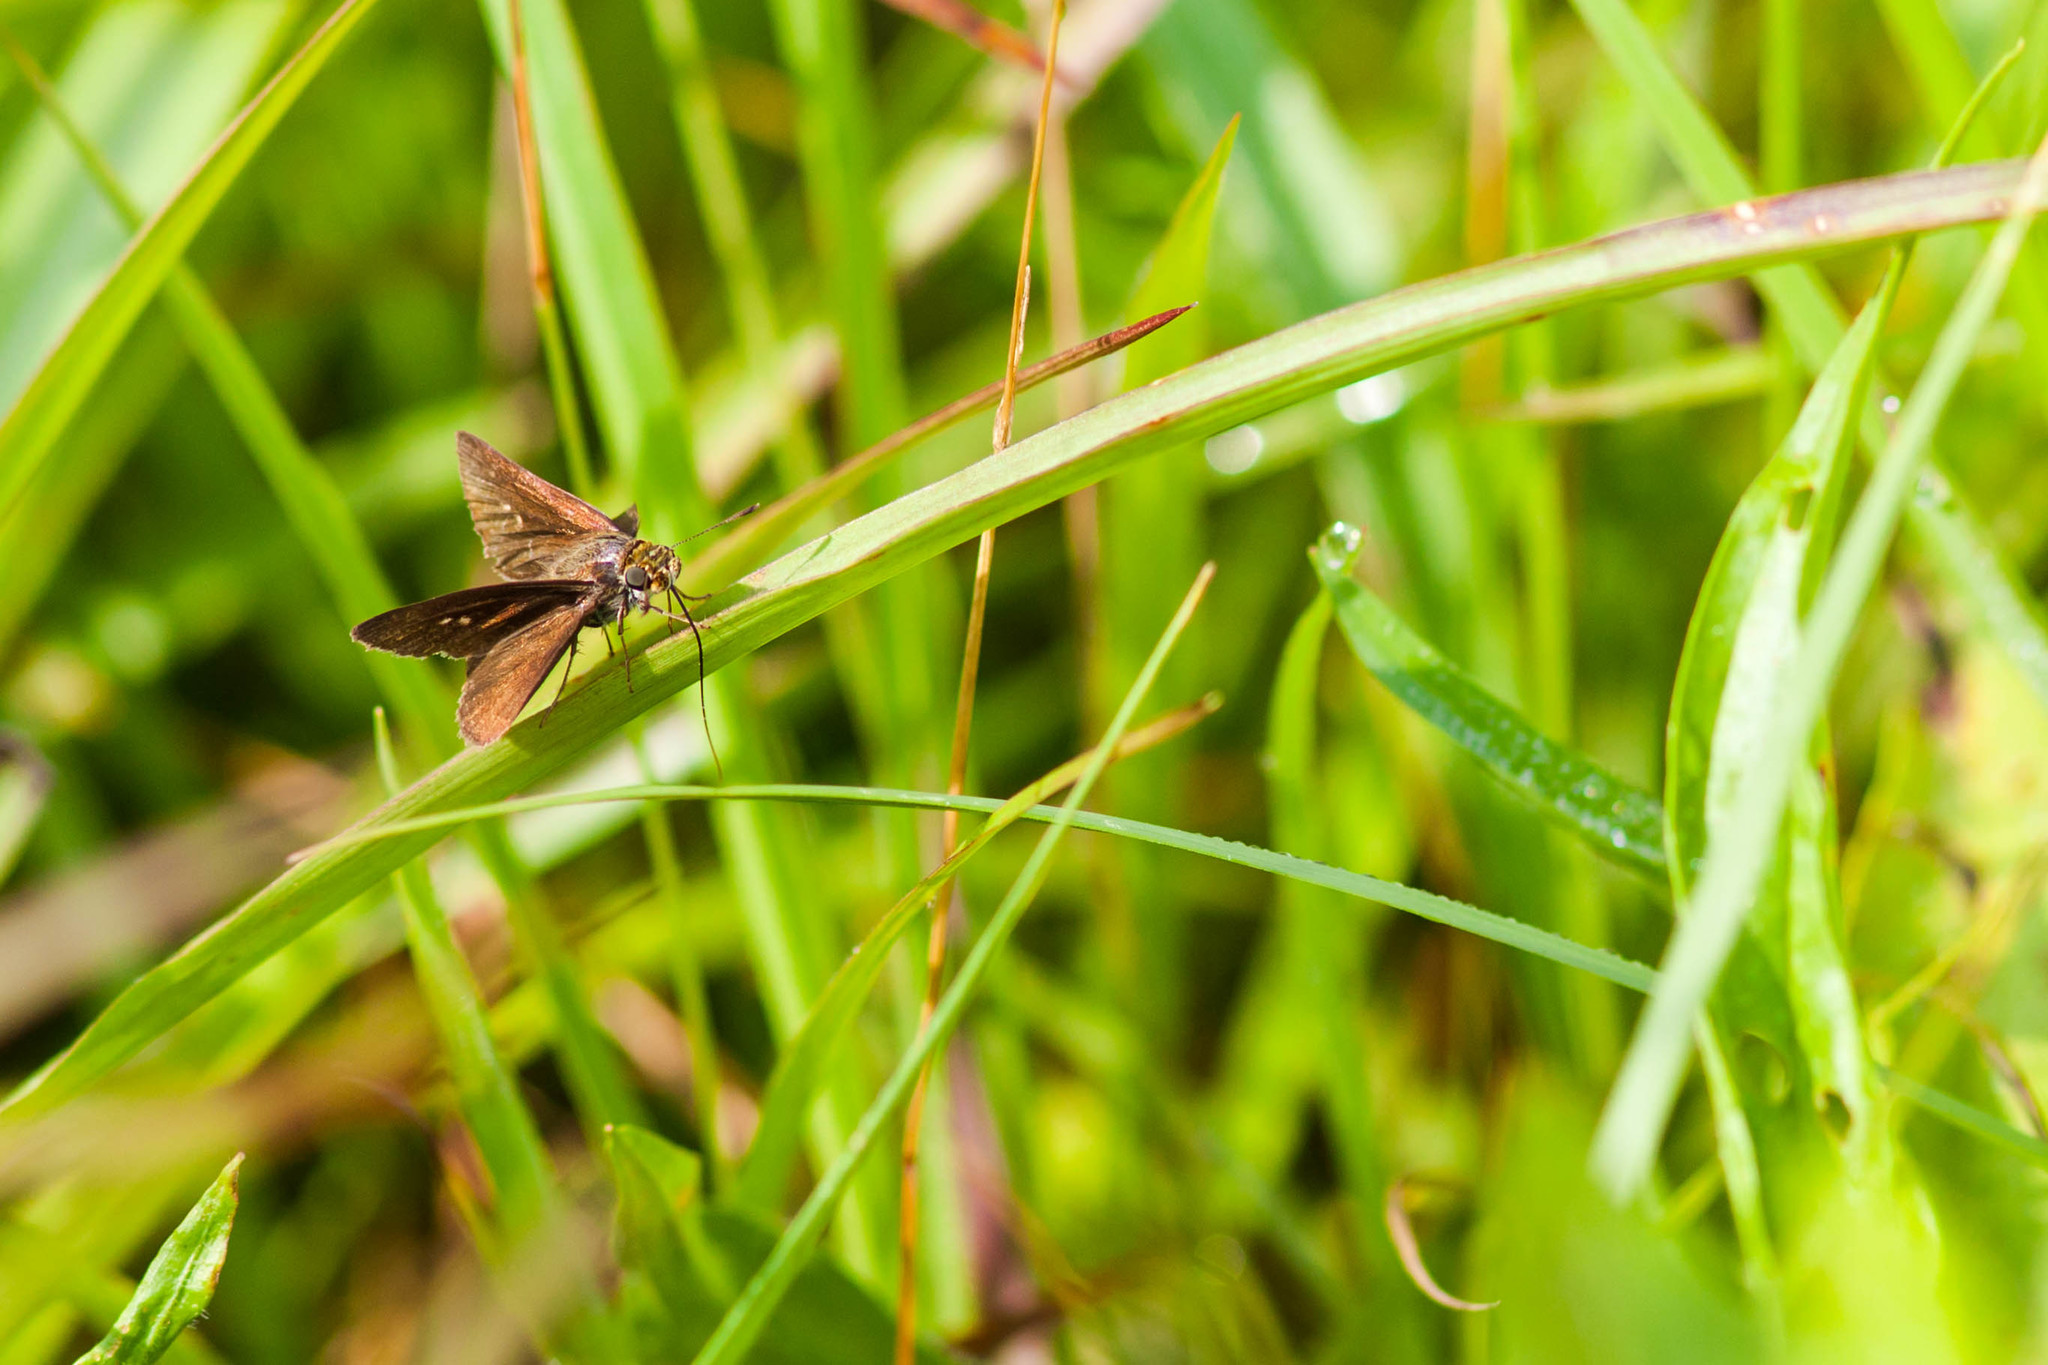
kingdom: Animalia
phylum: Arthropoda
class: Insecta
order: Lepidoptera
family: Hesperiidae
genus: Euphyes
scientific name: Euphyes vestris
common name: Dun skipper
